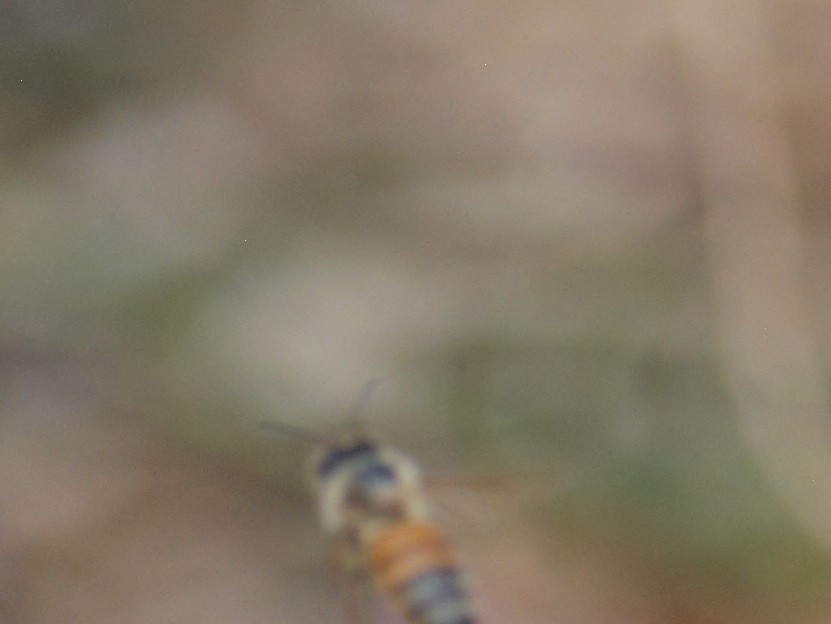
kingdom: Animalia
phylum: Arthropoda
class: Insecta
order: Hymenoptera
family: Apidae
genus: Apis
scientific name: Apis mellifera
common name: Honey bee
